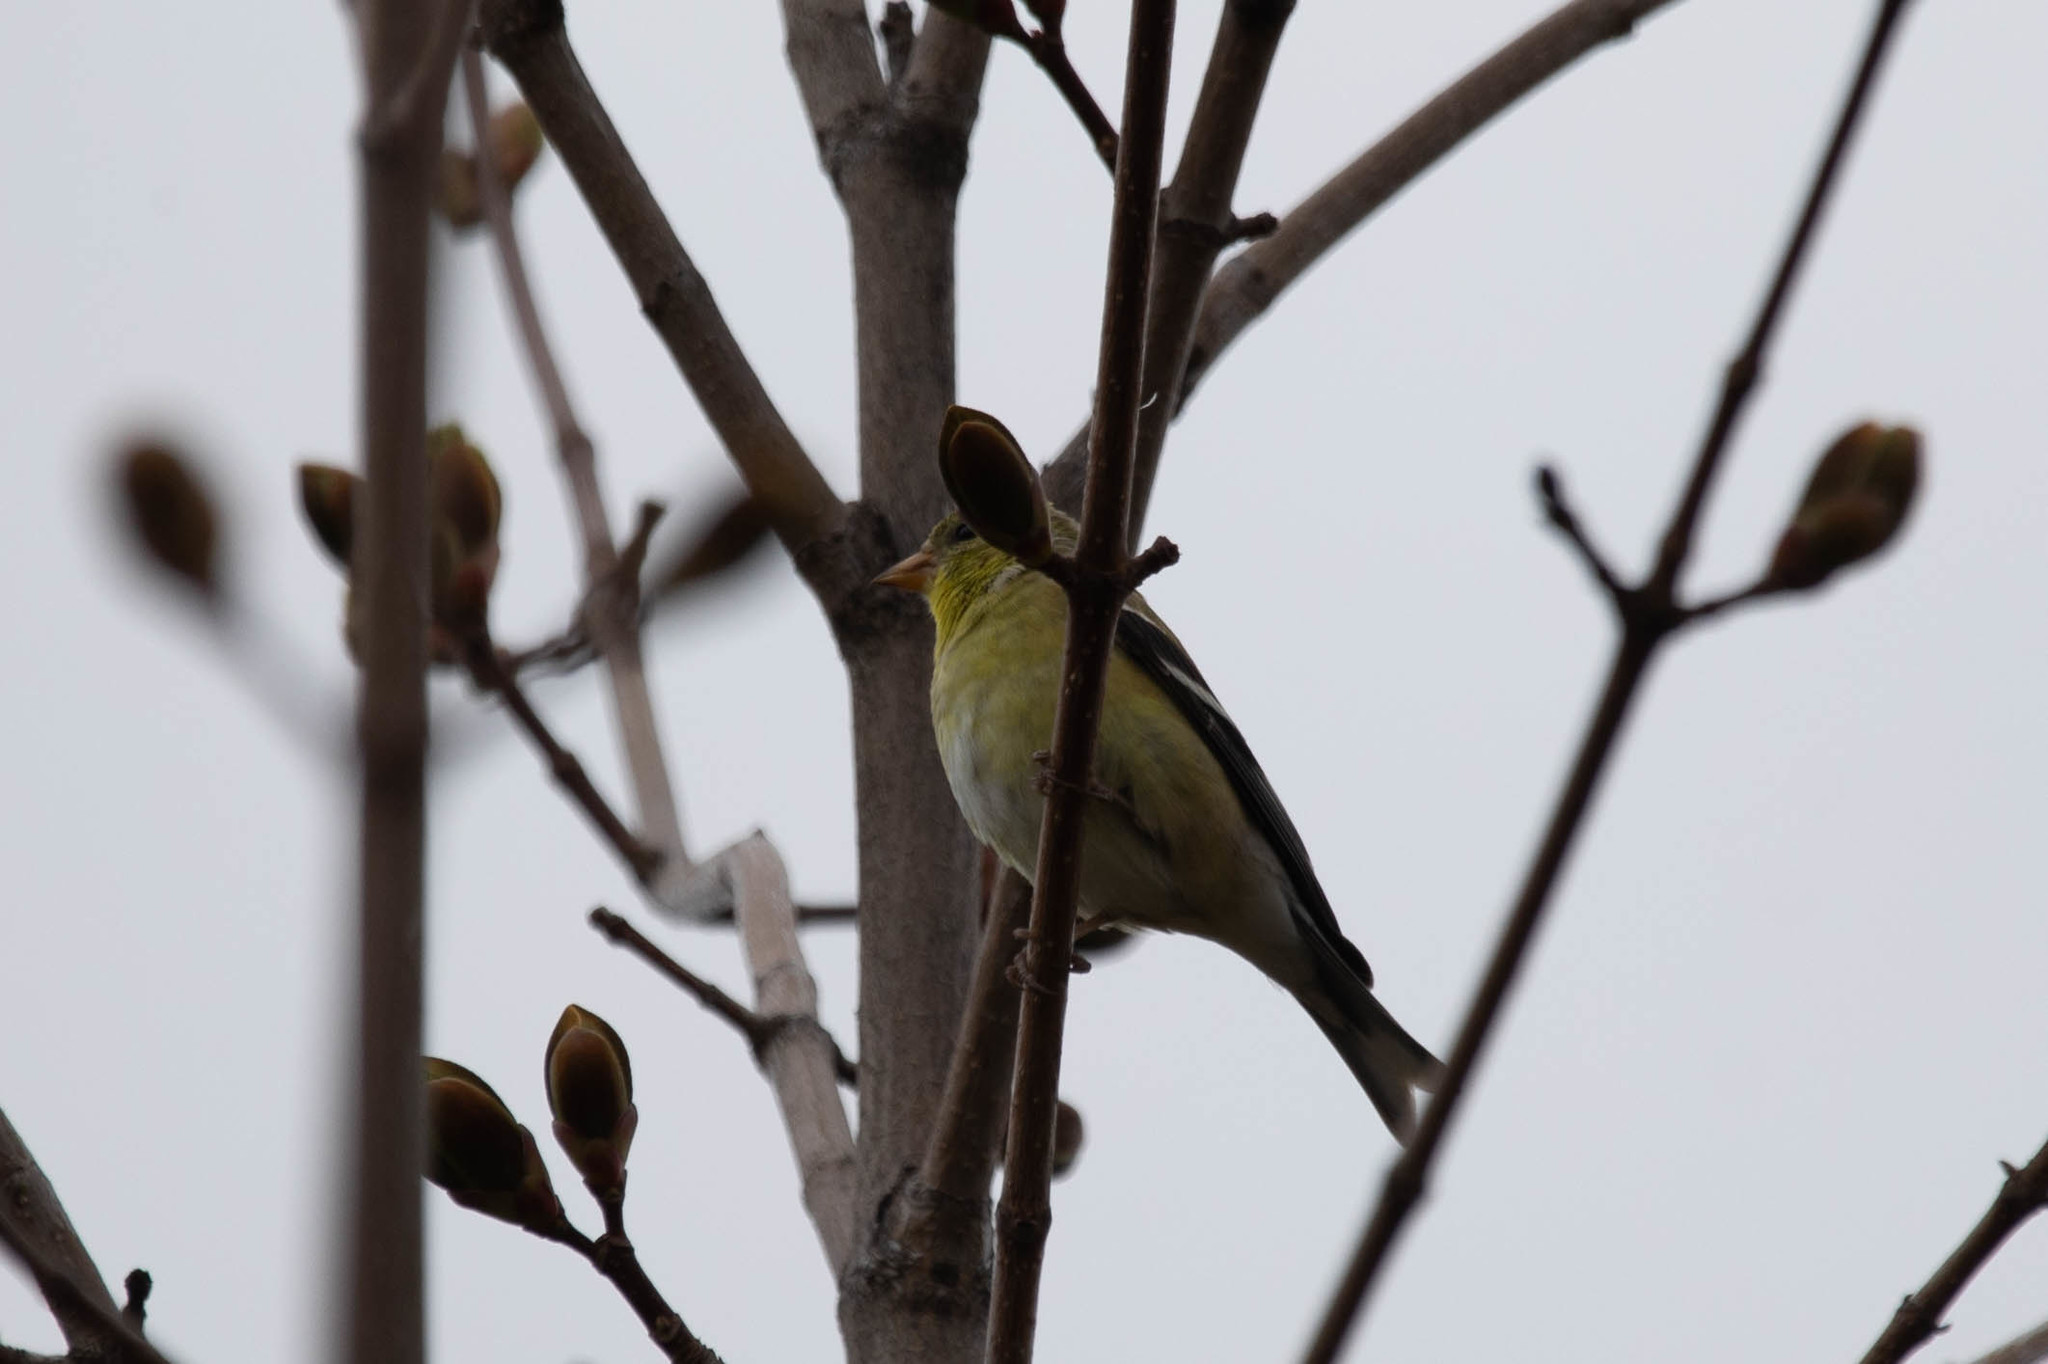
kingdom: Animalia
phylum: Chordata
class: Aves
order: Passeriformes
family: Fringillidae
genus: Spinus
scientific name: Spinus tristis
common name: American goldfinch
